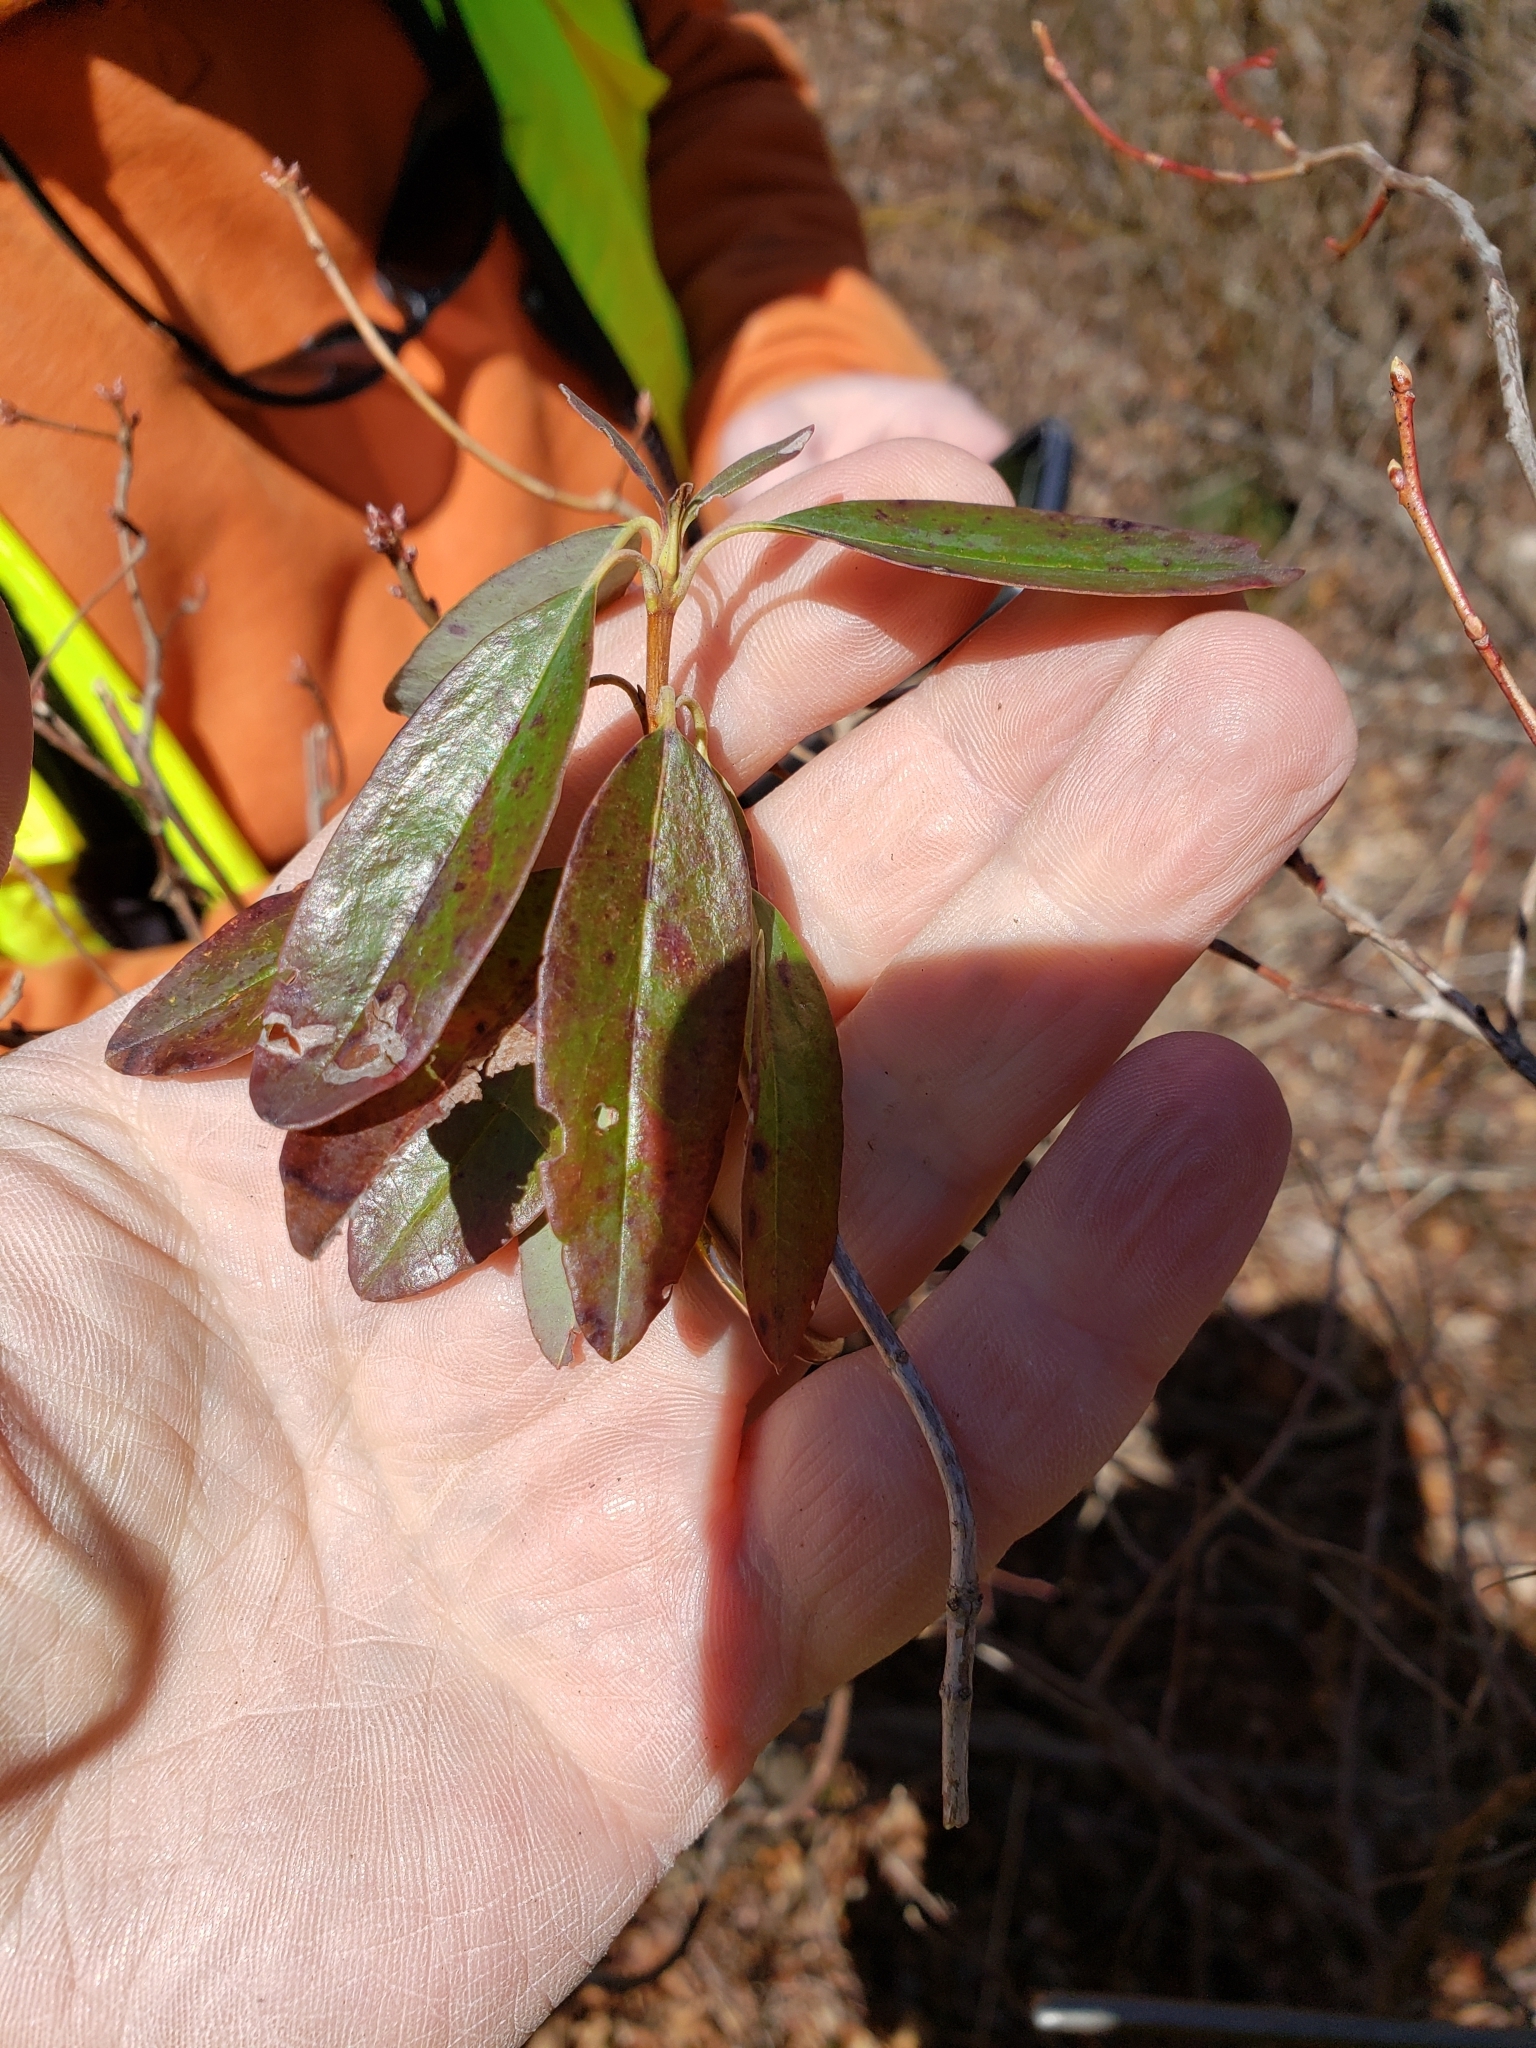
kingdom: Plantae
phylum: Tracheophyta
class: Magnoliopsida
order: Ericales
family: Ericaceae
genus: Kalmia
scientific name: Kalmia angustifolia
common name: Sheep-laurel
